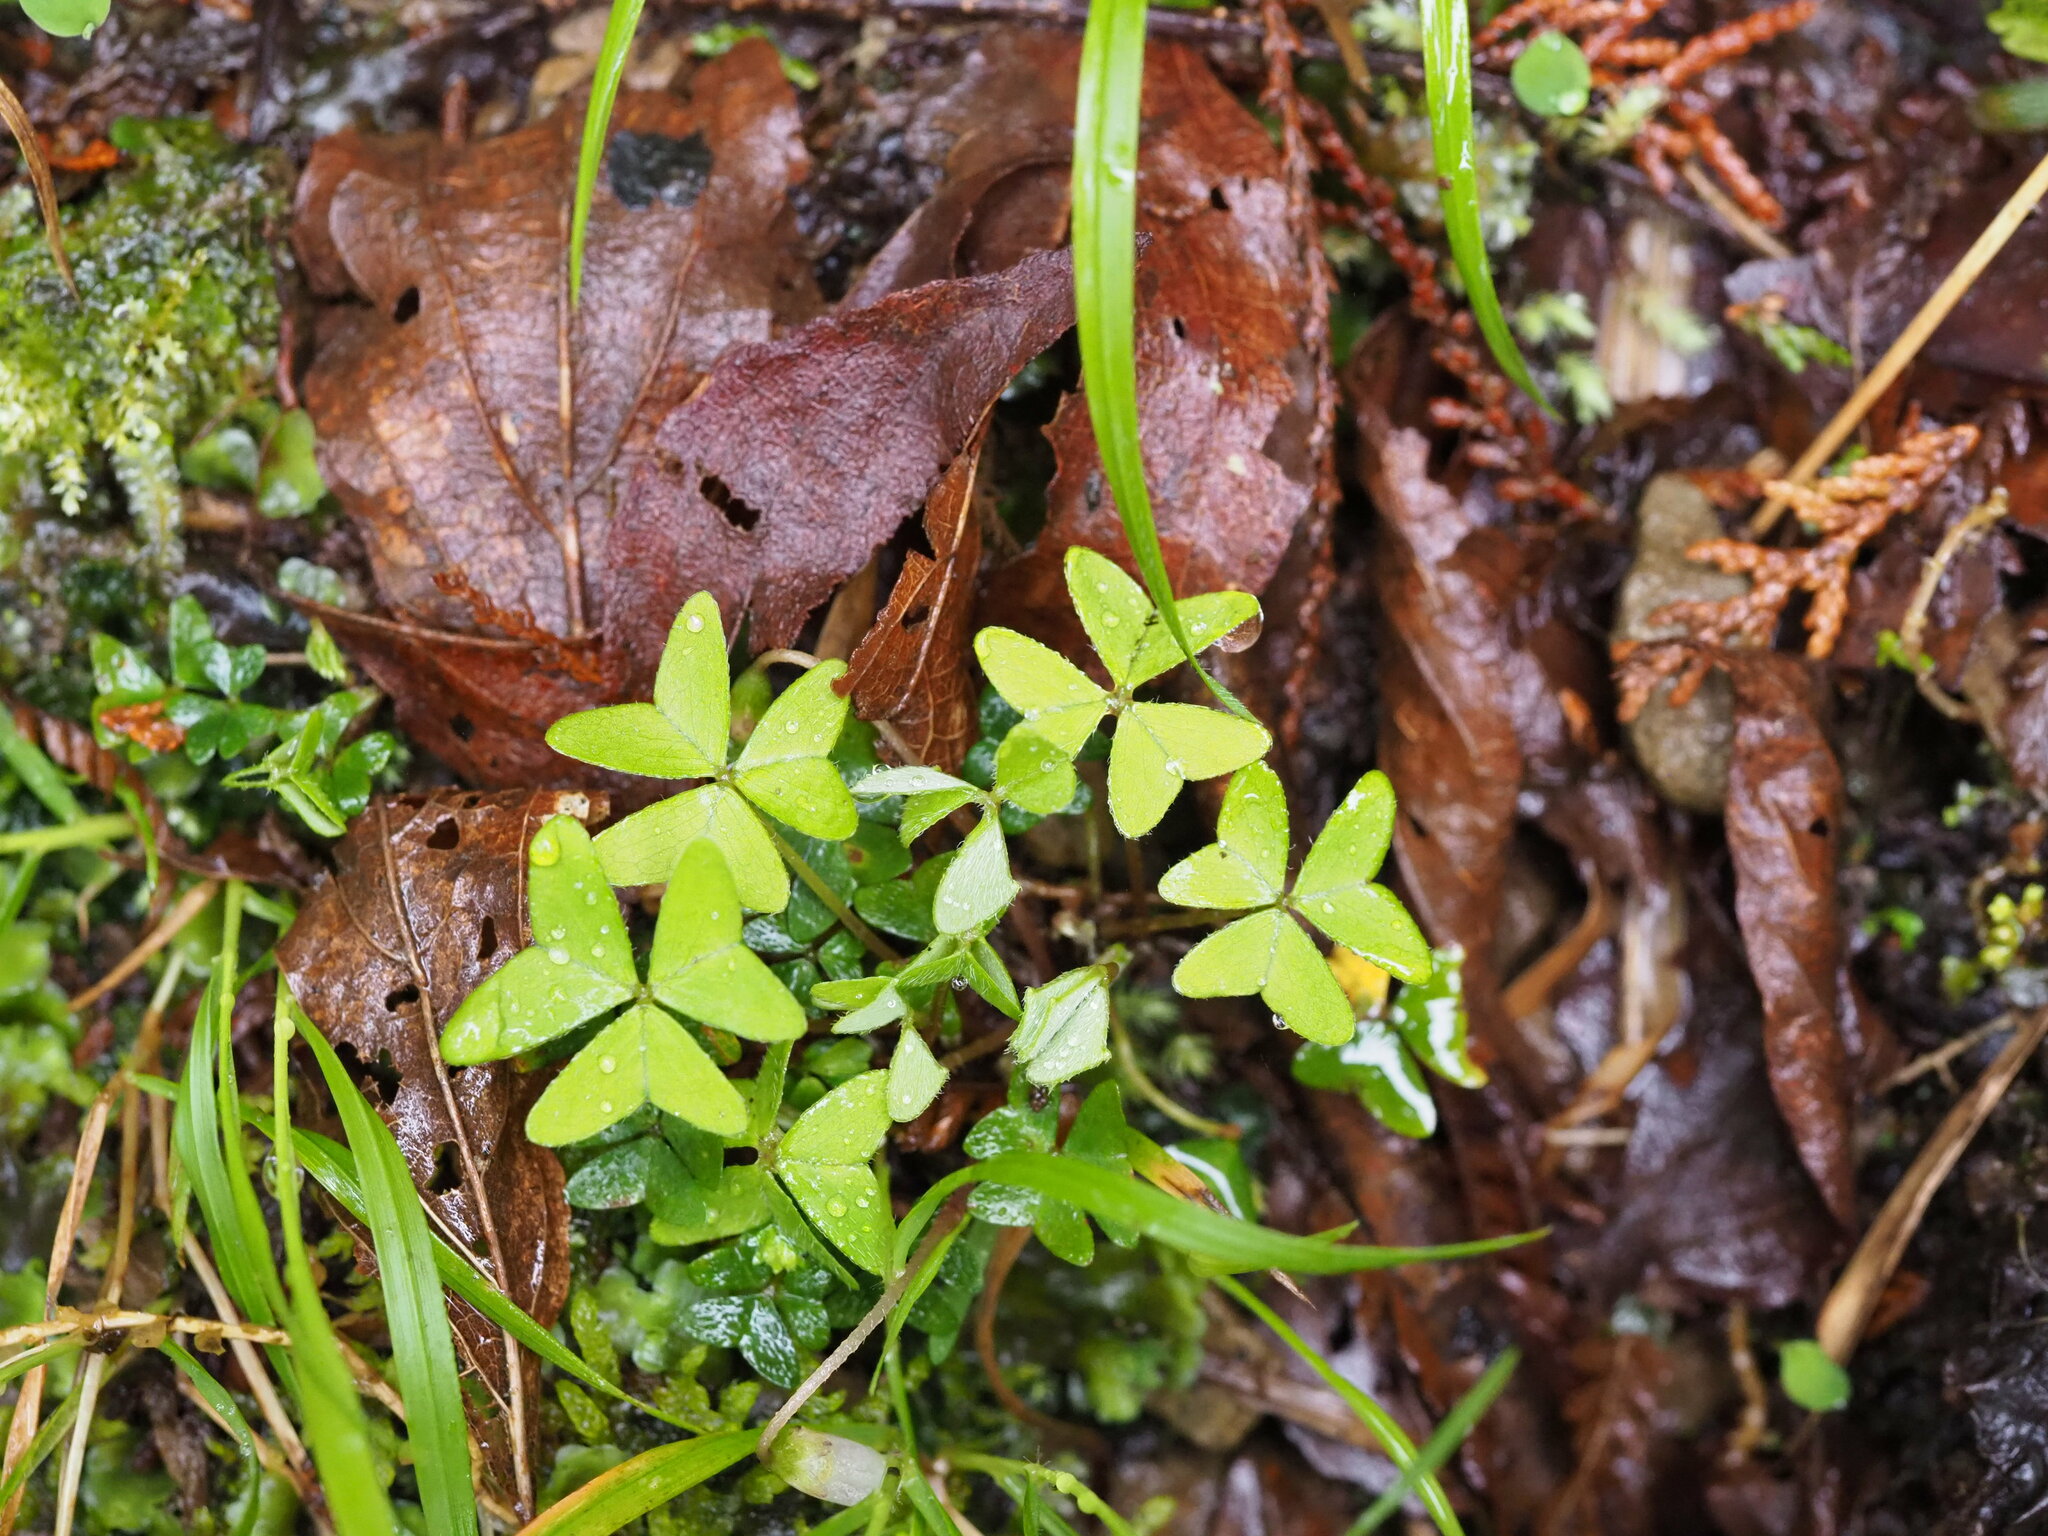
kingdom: Plantae
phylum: Tracheophyta
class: Magnoliopsida
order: Oxalidales
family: Oxalidaceae
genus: Oxalis
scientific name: Oxalis griffithii
